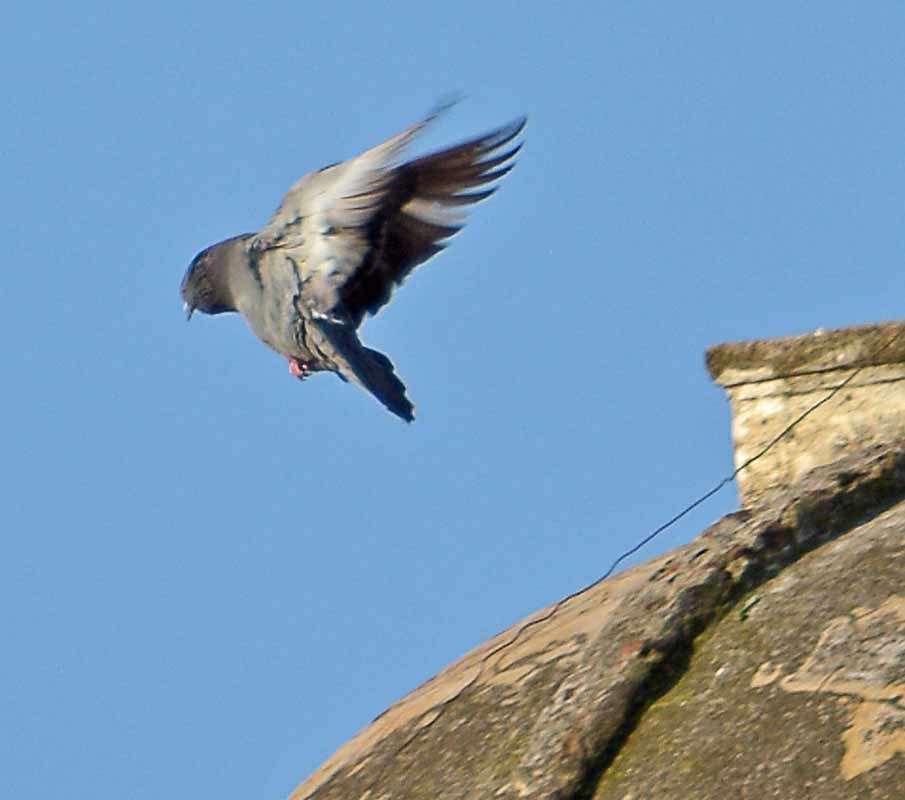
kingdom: Animalia
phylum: Chordata
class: Aves
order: Columbiformes
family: Columbidae
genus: Columba
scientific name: Columba livia
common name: Rock pigeon
